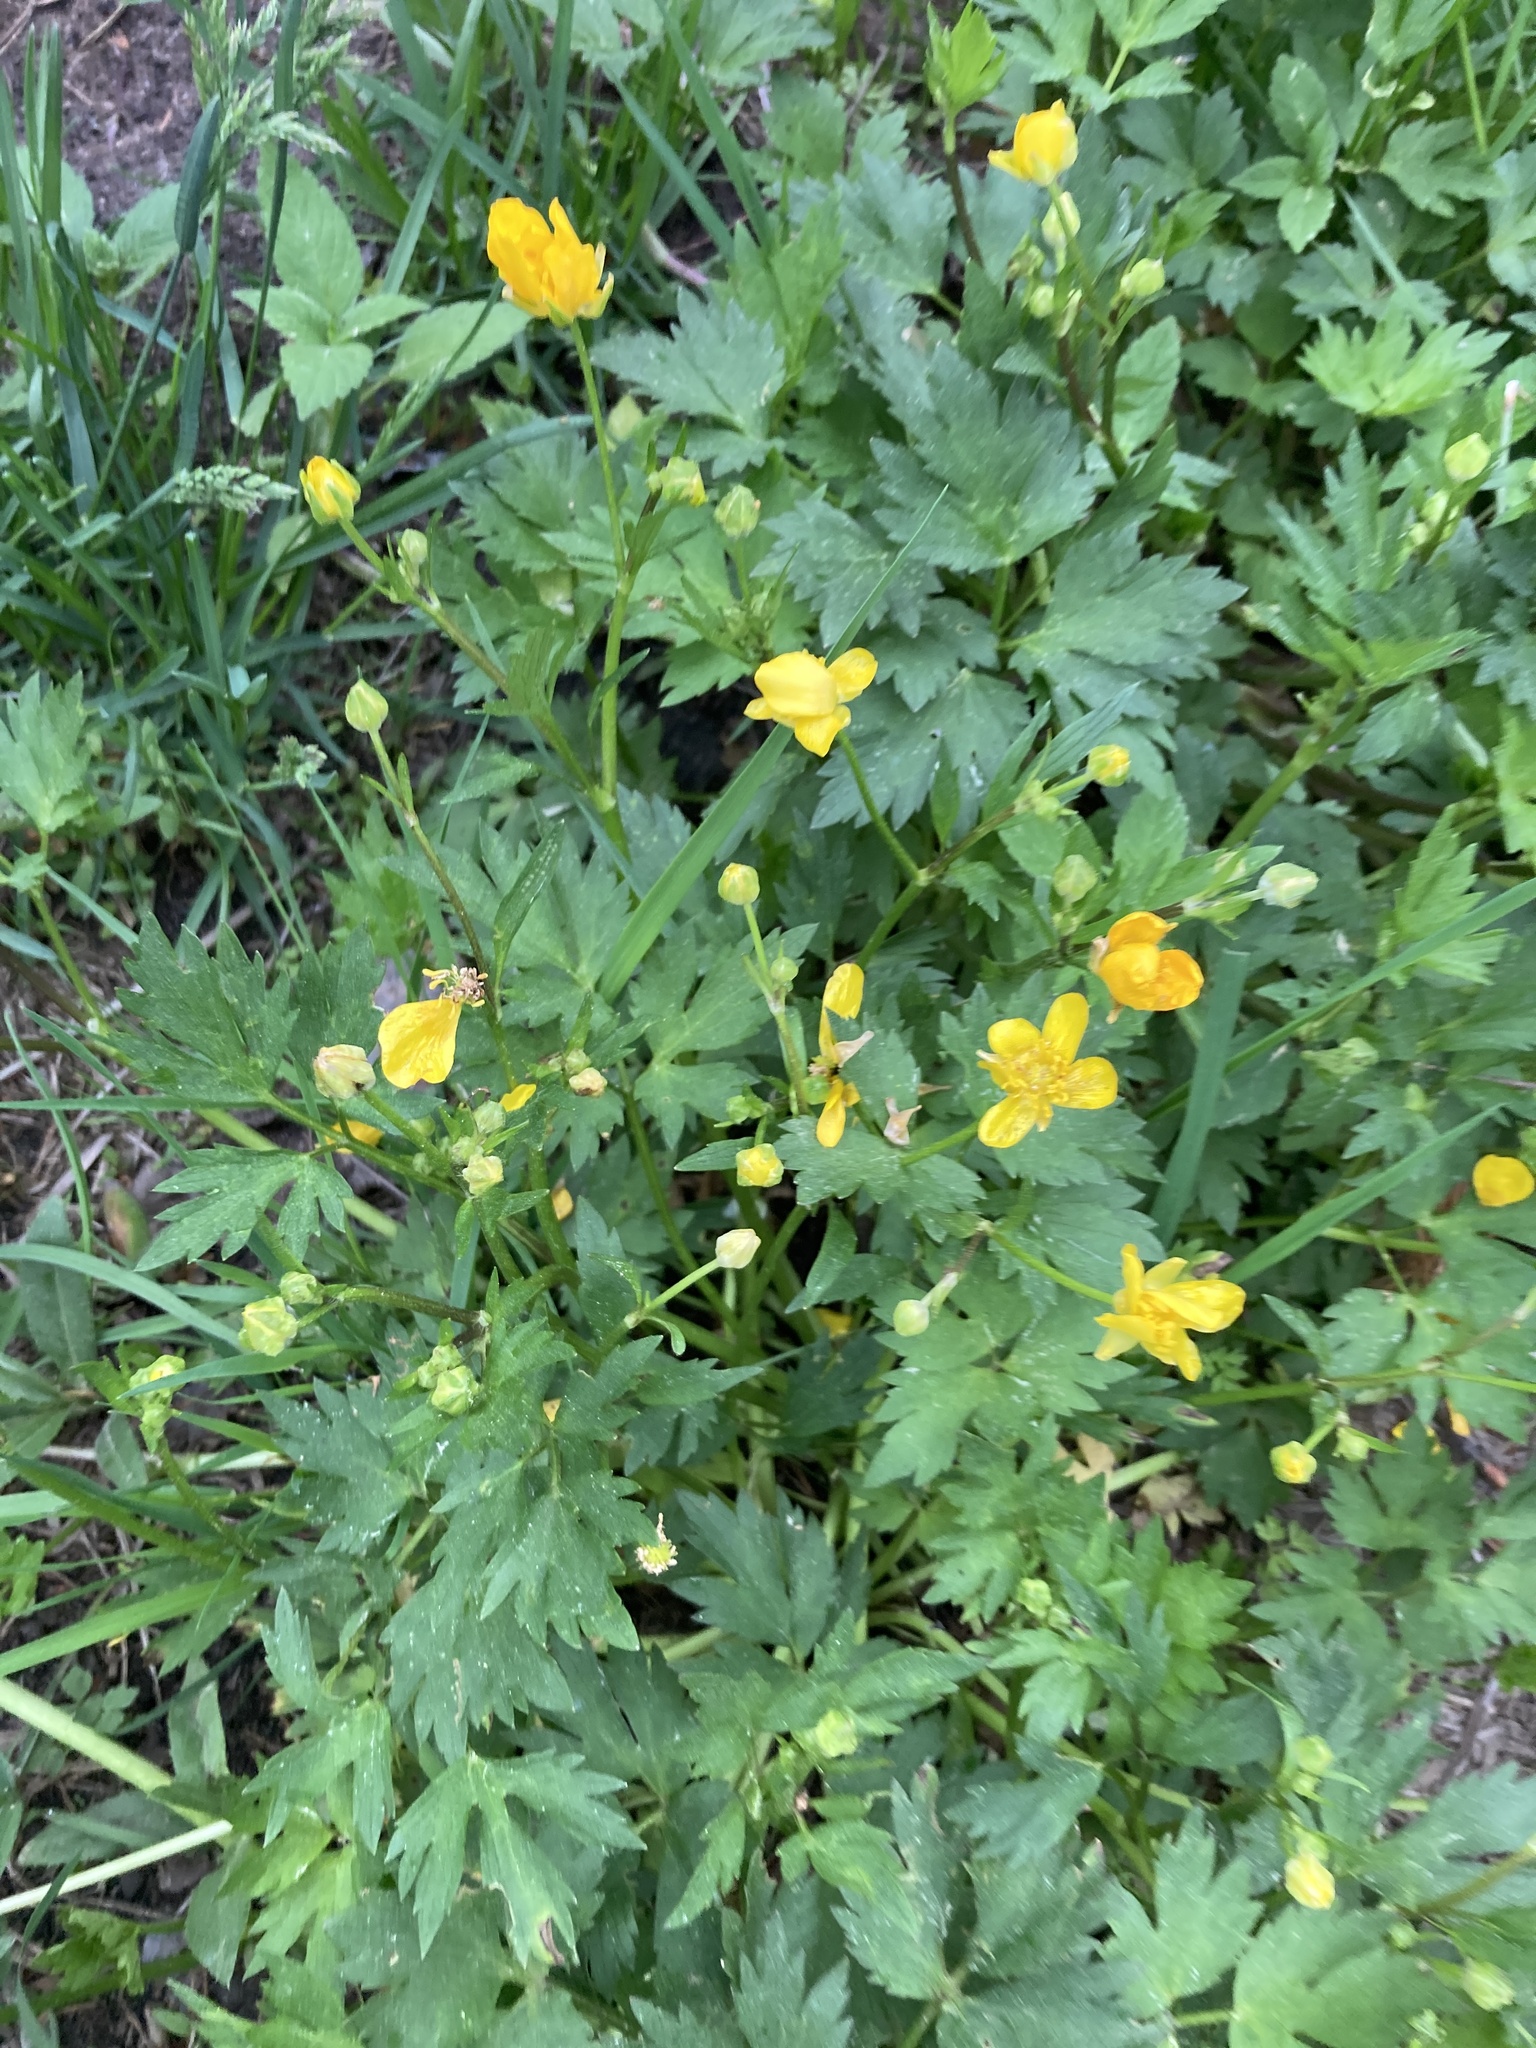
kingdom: Plantae
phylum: Tracheophyta
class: Magnoliopsida
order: Ranunculales
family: Ranunculaceae
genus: Ranunculus
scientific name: Ranunculus repens
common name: Creeping buttercup
